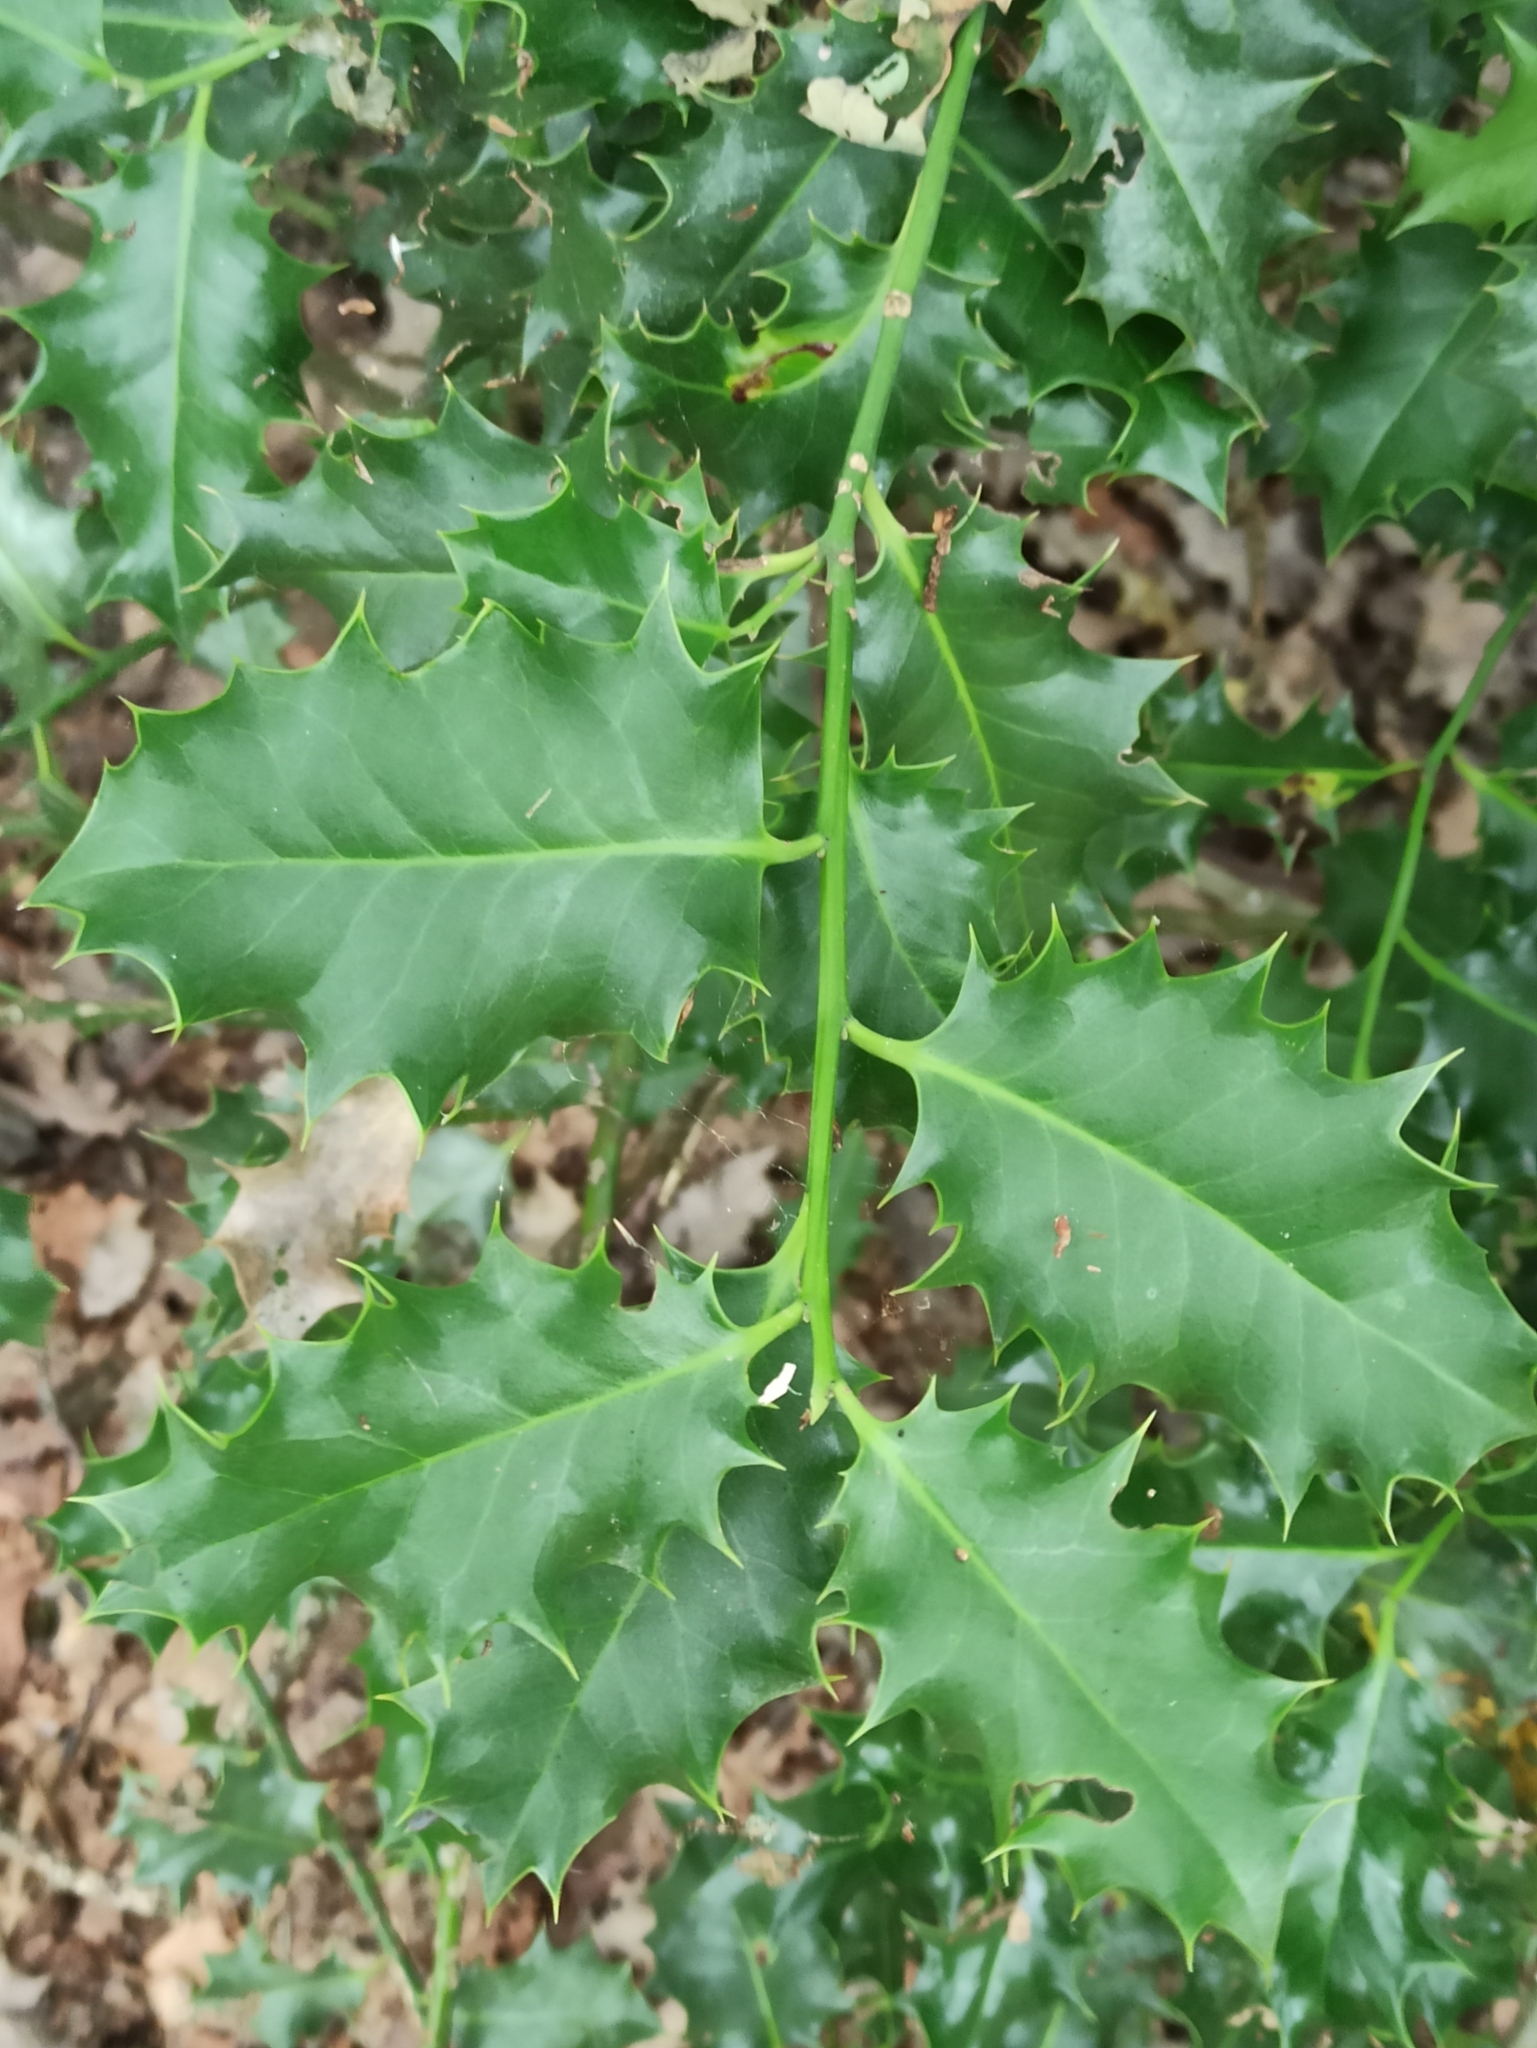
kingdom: Plantae
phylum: Tracheophyta
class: Magnoliopsida
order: Aquifoliales
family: Aquifoliaceae
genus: Ilex
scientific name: Ilex aquifolium
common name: English holly
